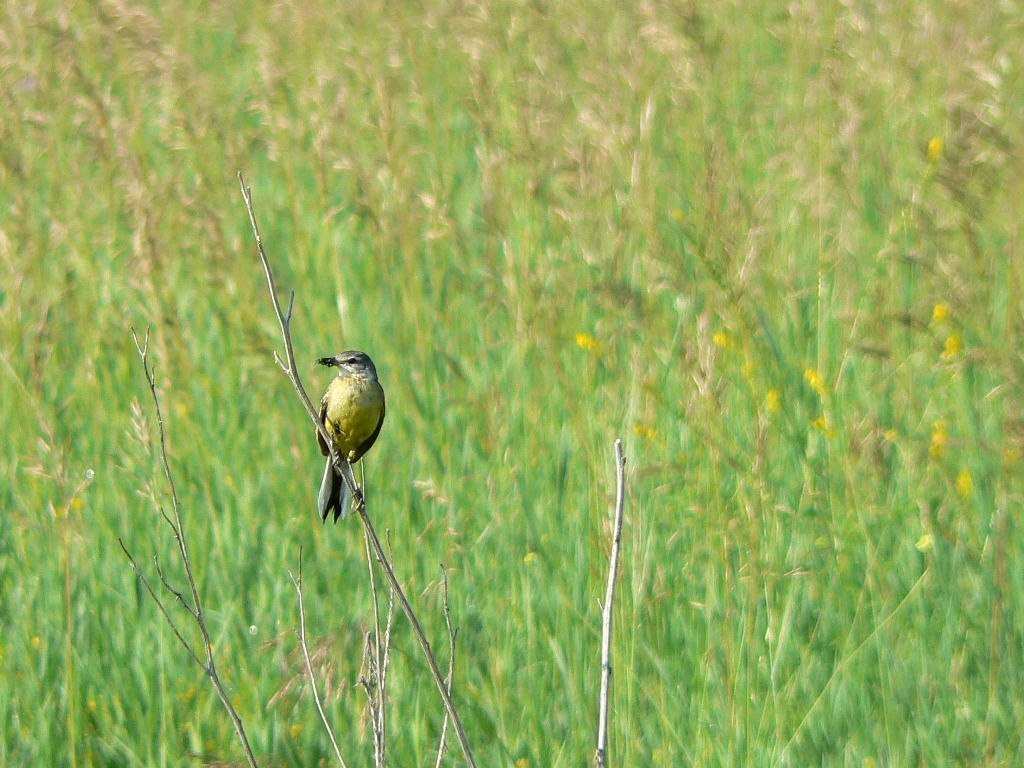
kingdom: Animalia
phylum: Chordata
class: Aves
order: Passeriformes
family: Motacillidae
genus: Motacilla
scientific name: Motacilla flava
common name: Western yellow wagtail
